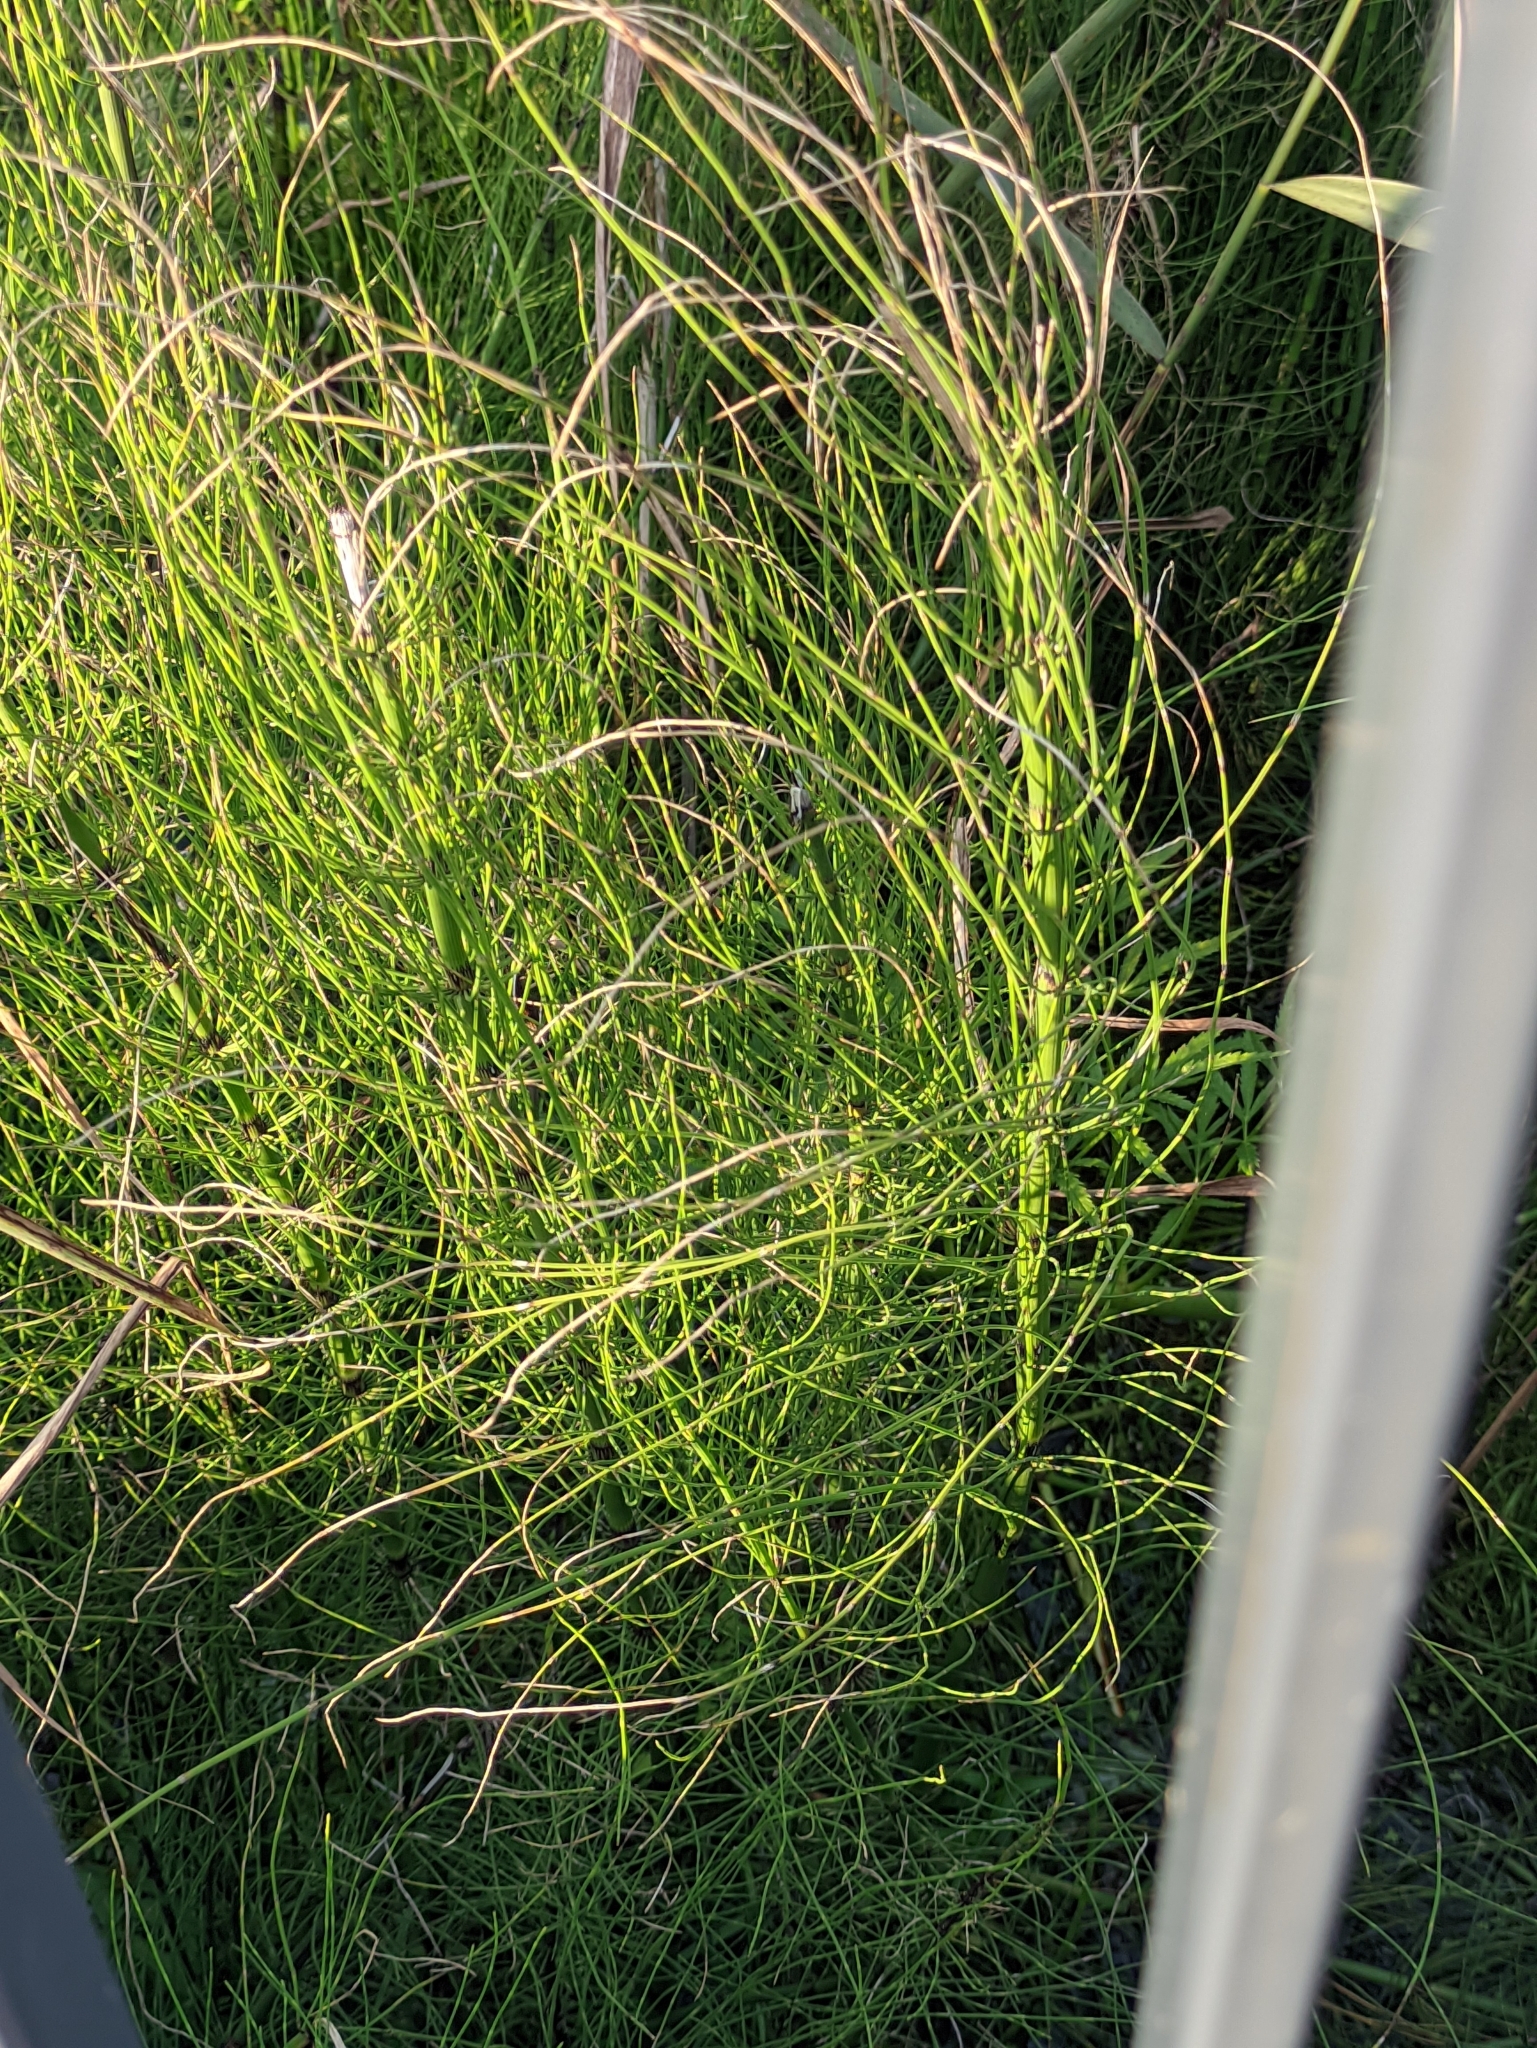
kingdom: Plantae
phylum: Tracheophyta
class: Polypodiopsida
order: Equisetales
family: Equisetaceae
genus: Equisetum
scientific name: Equisetum fluviatile
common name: Water horsetail
